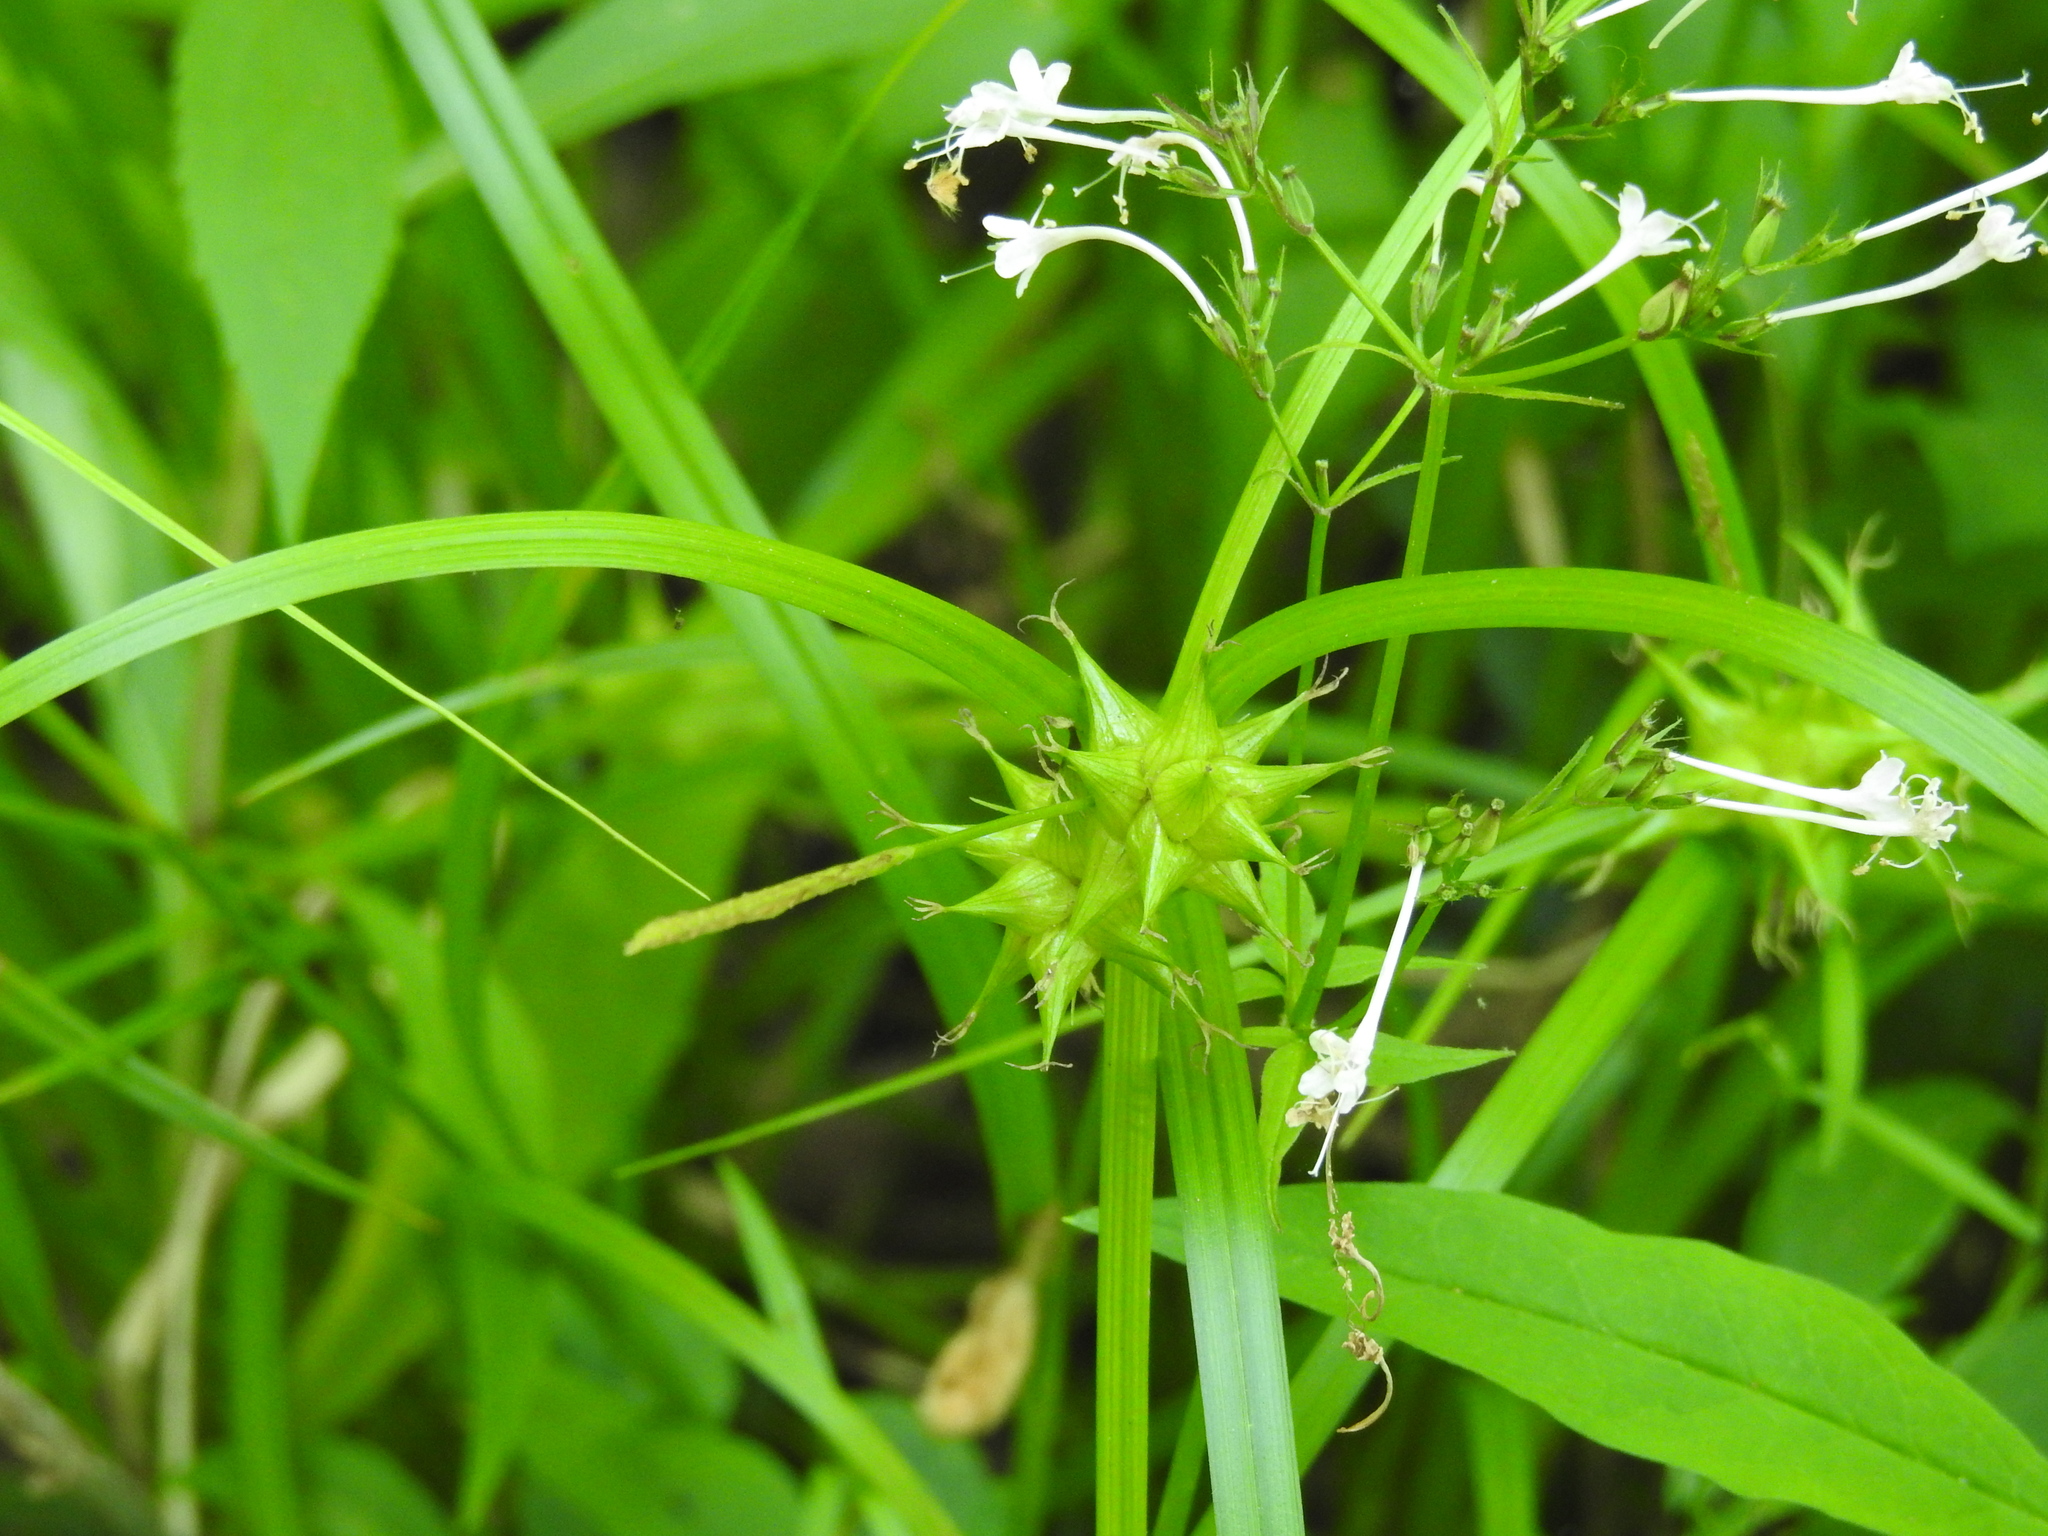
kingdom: Plantae
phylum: Tracheophyta
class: Liliopsida
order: Poales
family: Cyperaceae
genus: Carex
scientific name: Carex intumescens
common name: Greater bladder sedge
